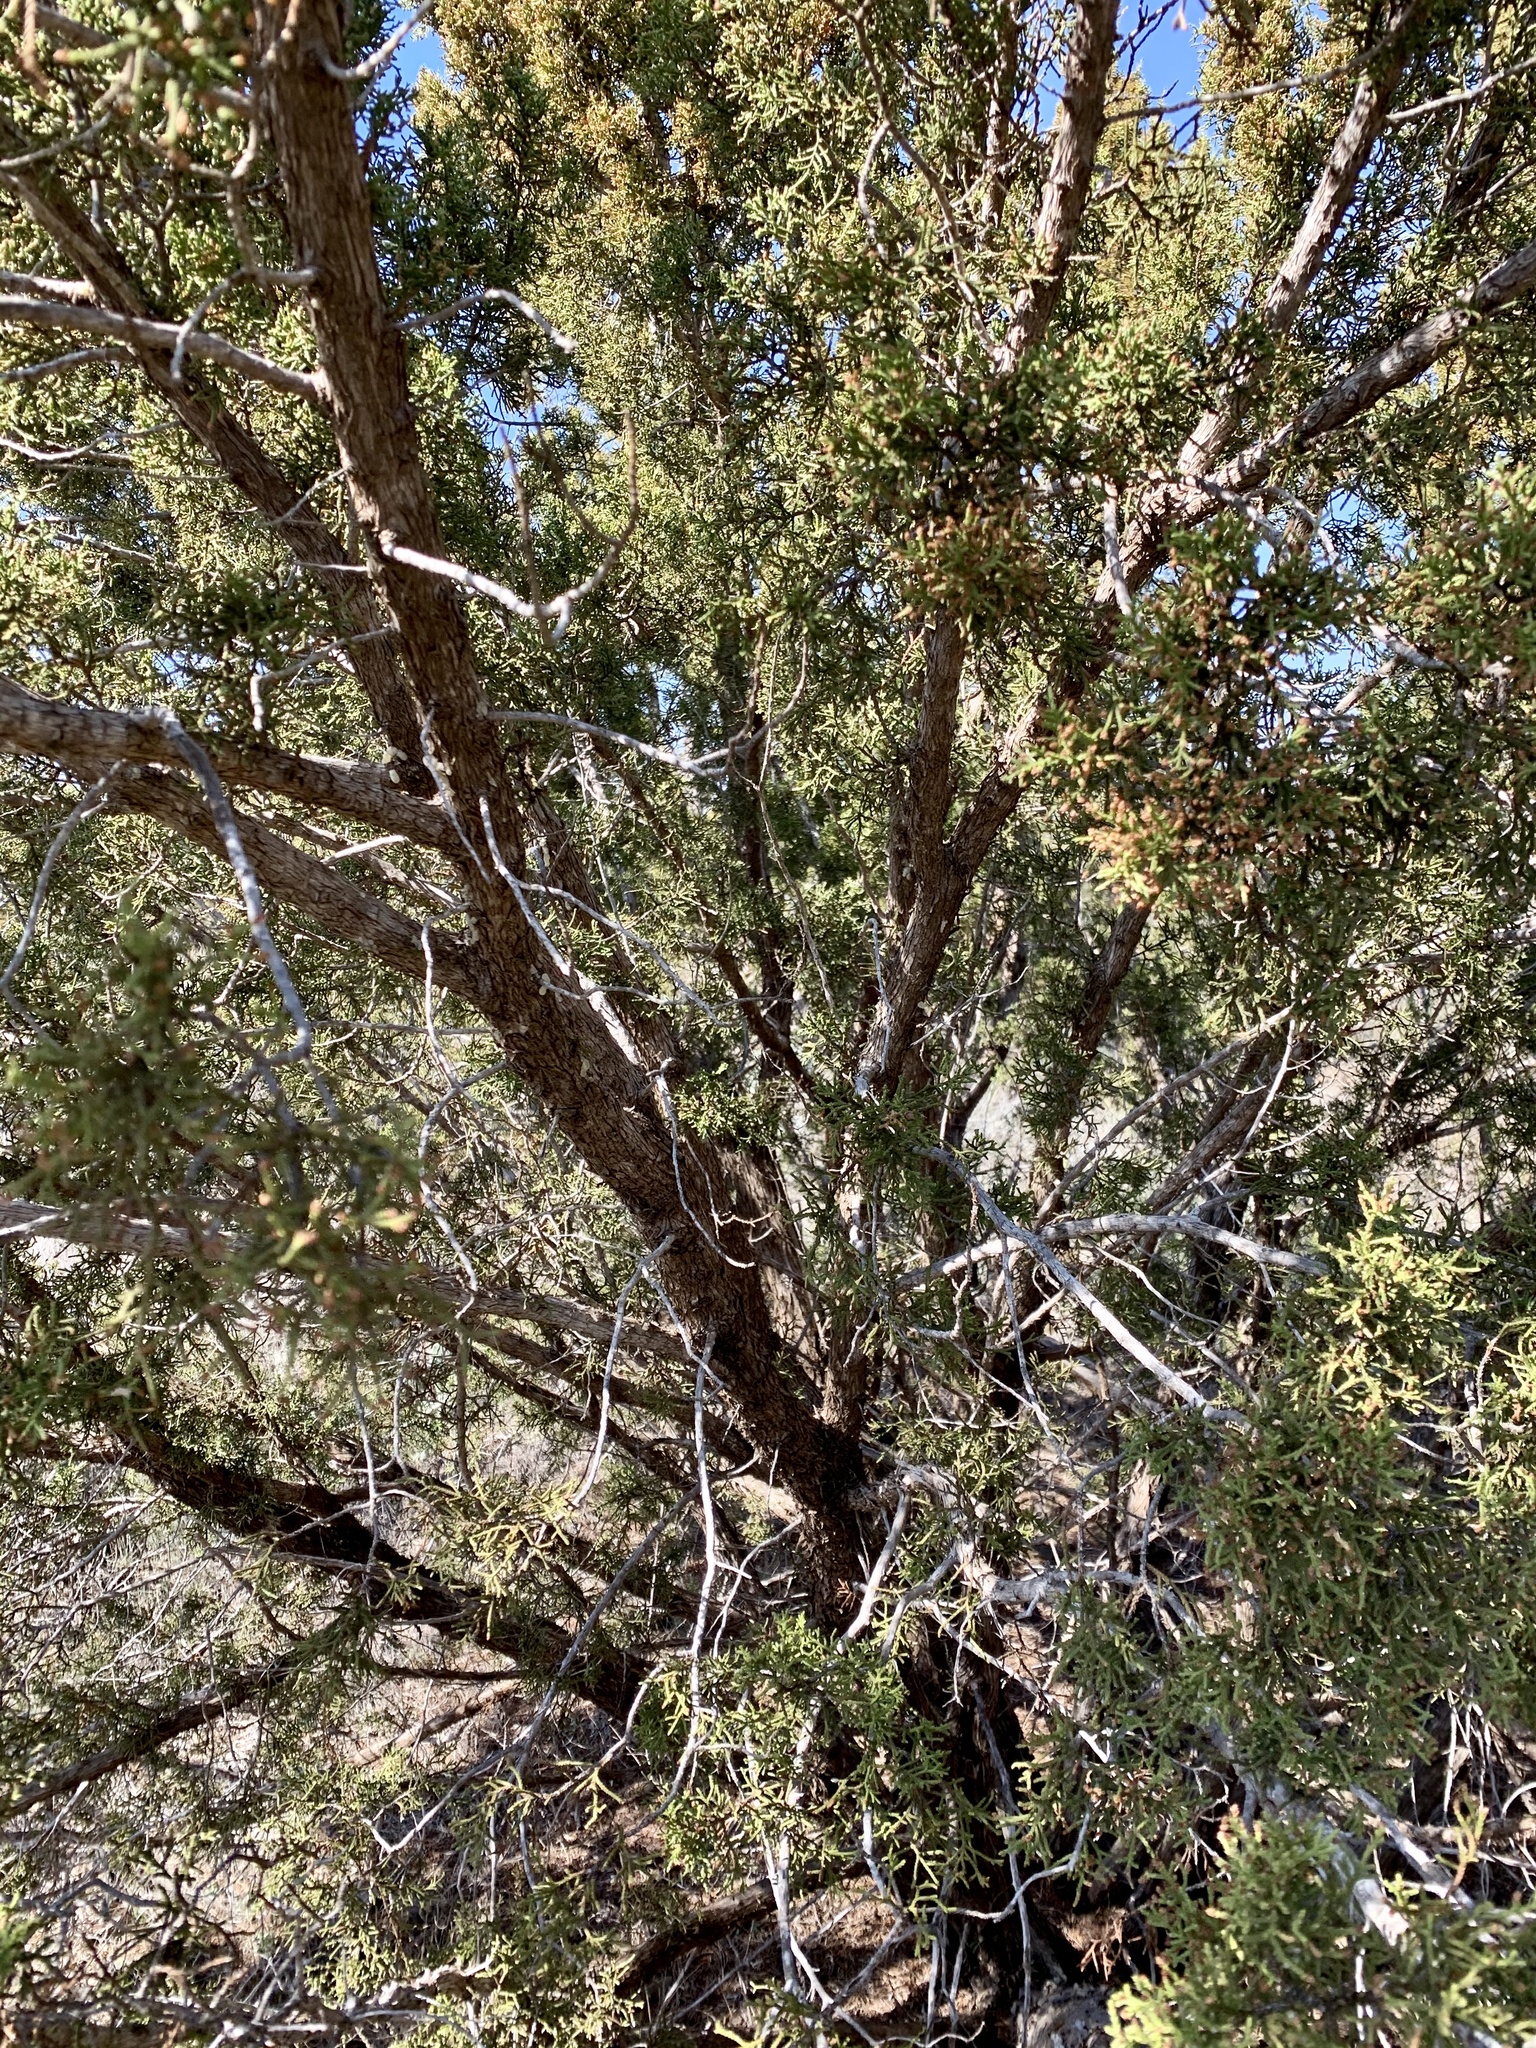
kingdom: Plantae
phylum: Tracheophyta
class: Pinopsida
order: Pinales
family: Cupressaceae
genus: Juniperus
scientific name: Juniperus pinchotii
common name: Pinchot juniper
